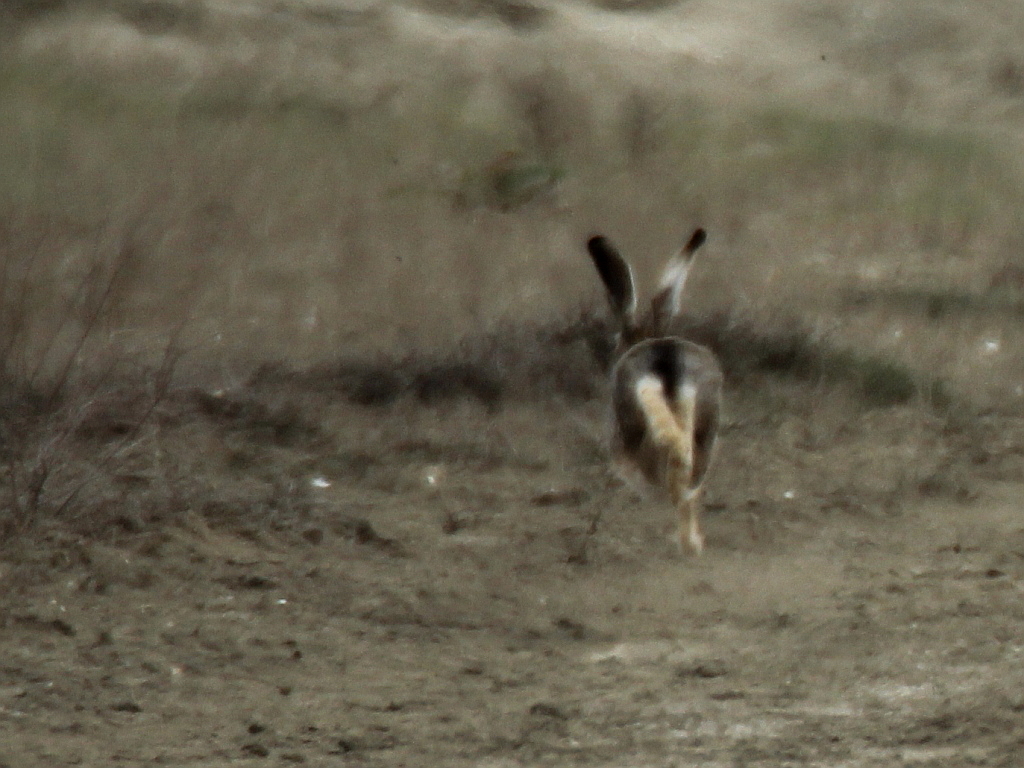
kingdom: Animalia
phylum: Chordata
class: Mammalia
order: Lagomorpha
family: Leporidae
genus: Lepus
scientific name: Lepus europaeus
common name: European hare
